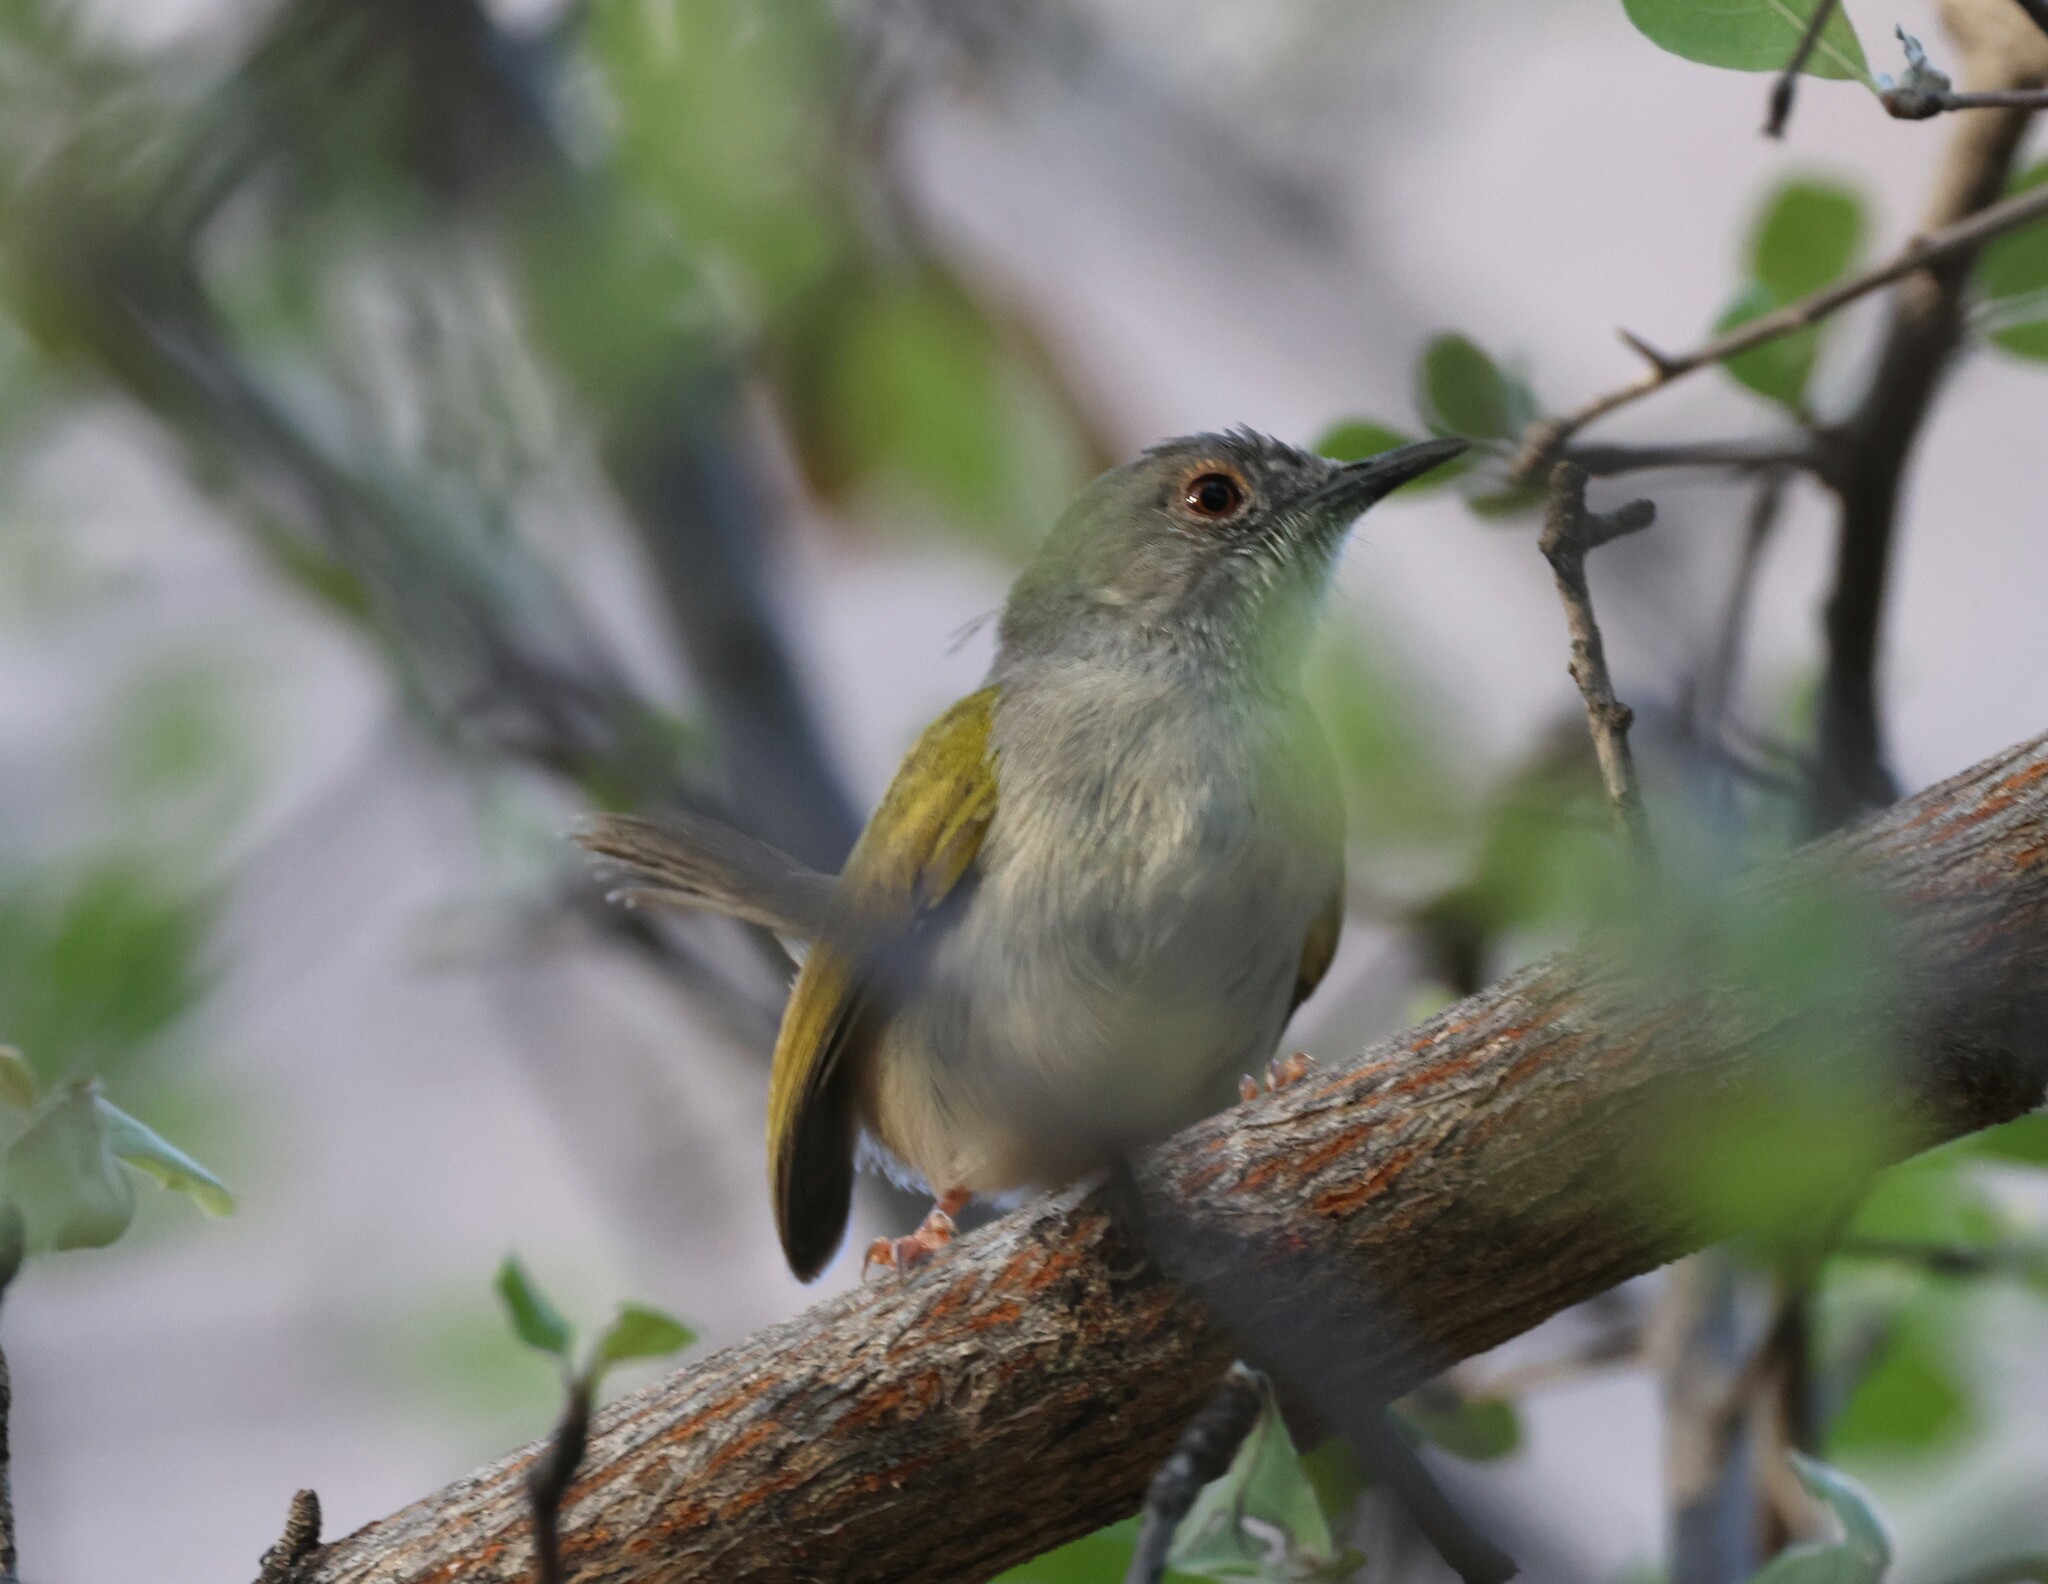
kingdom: Animalia
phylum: Chordata
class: Aves
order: Passeriformes
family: Cisticolidae
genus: Camaroptera
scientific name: Camaroptera brachyura
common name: Green-backed camaroptera
